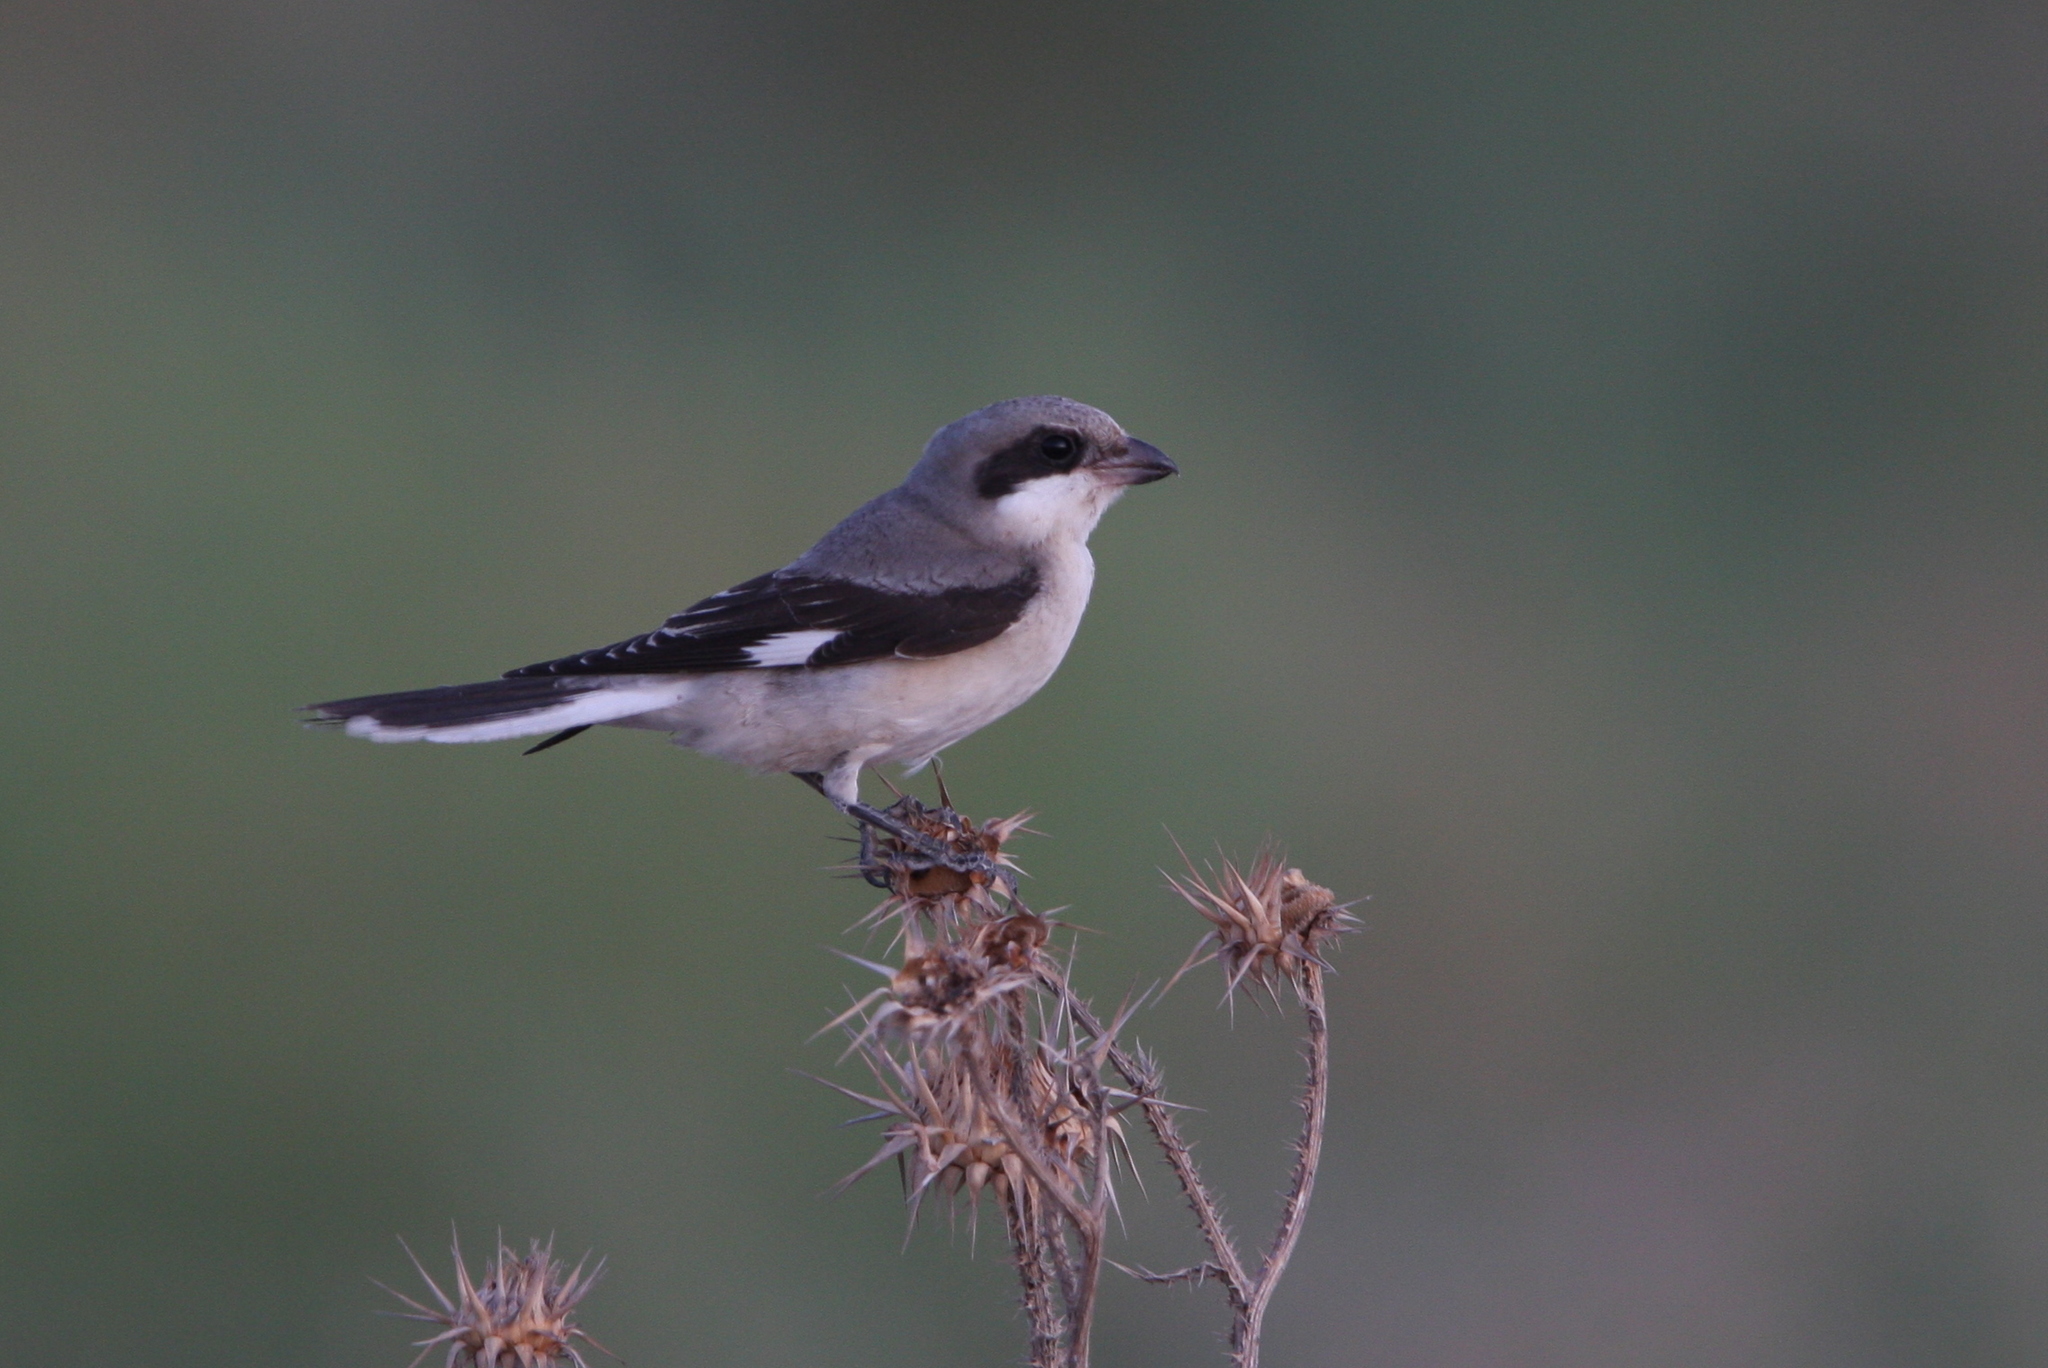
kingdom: Animalia
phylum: Chordata
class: Aves
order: Passeriformes
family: Laniidae
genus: Lanius
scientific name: Lanius minor
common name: Lesser grey shrike
